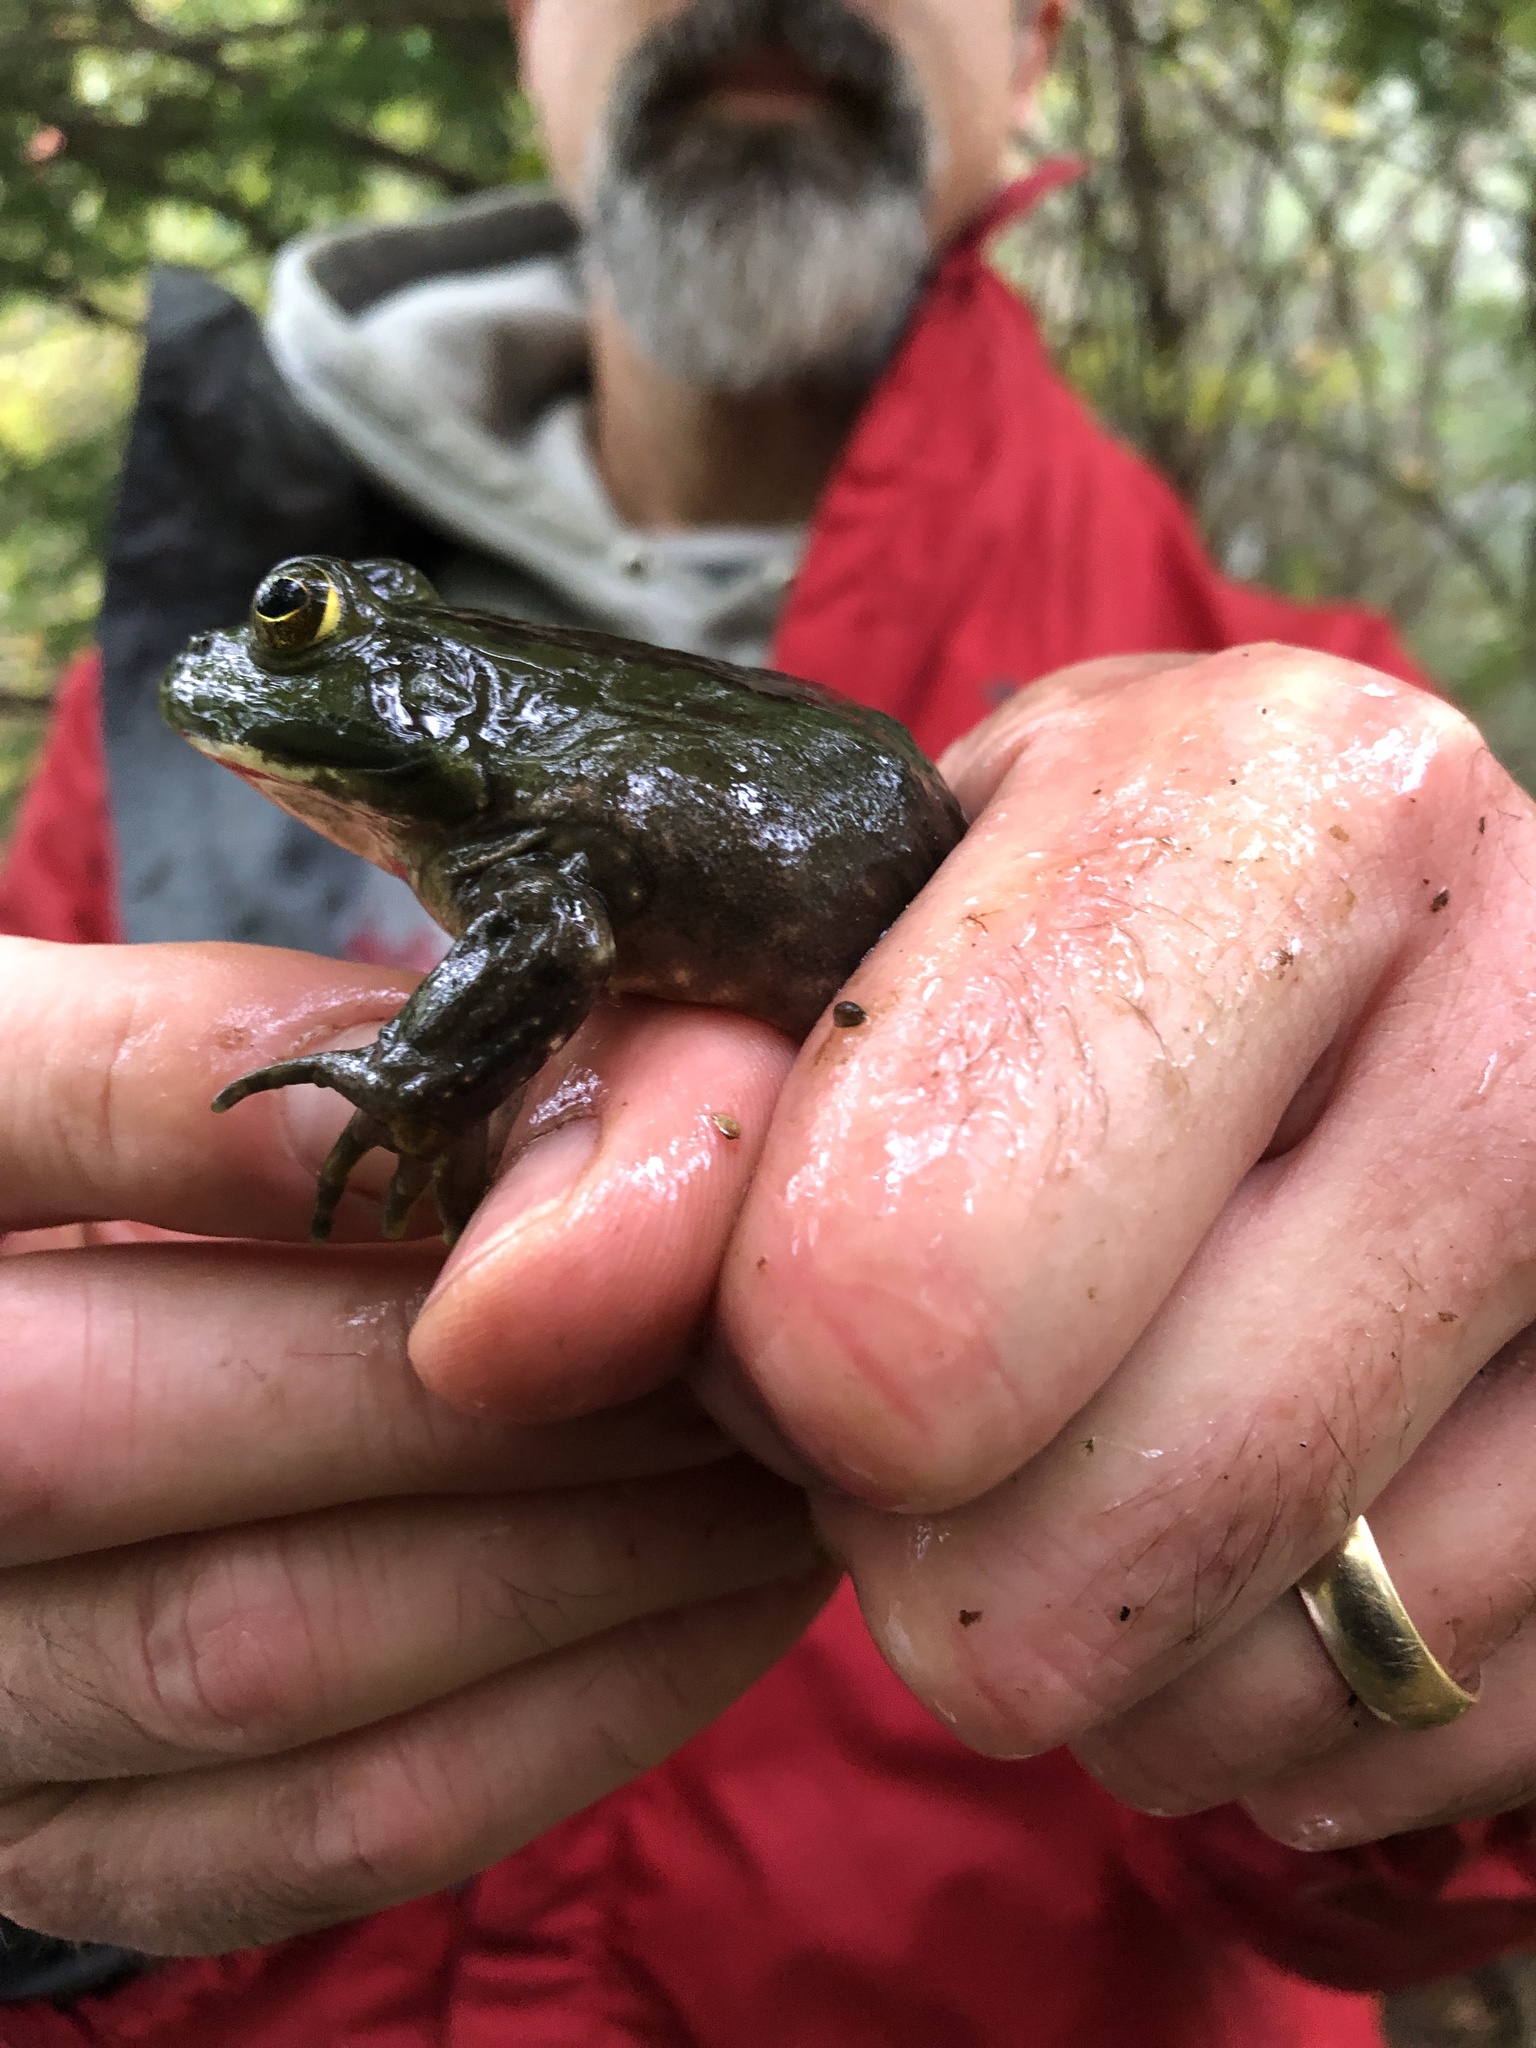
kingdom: Animalia
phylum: Chordata
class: Amphibia
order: Anura
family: Ranidae
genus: Lithobates
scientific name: Lithobates catesbeianus
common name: American bullfrog
